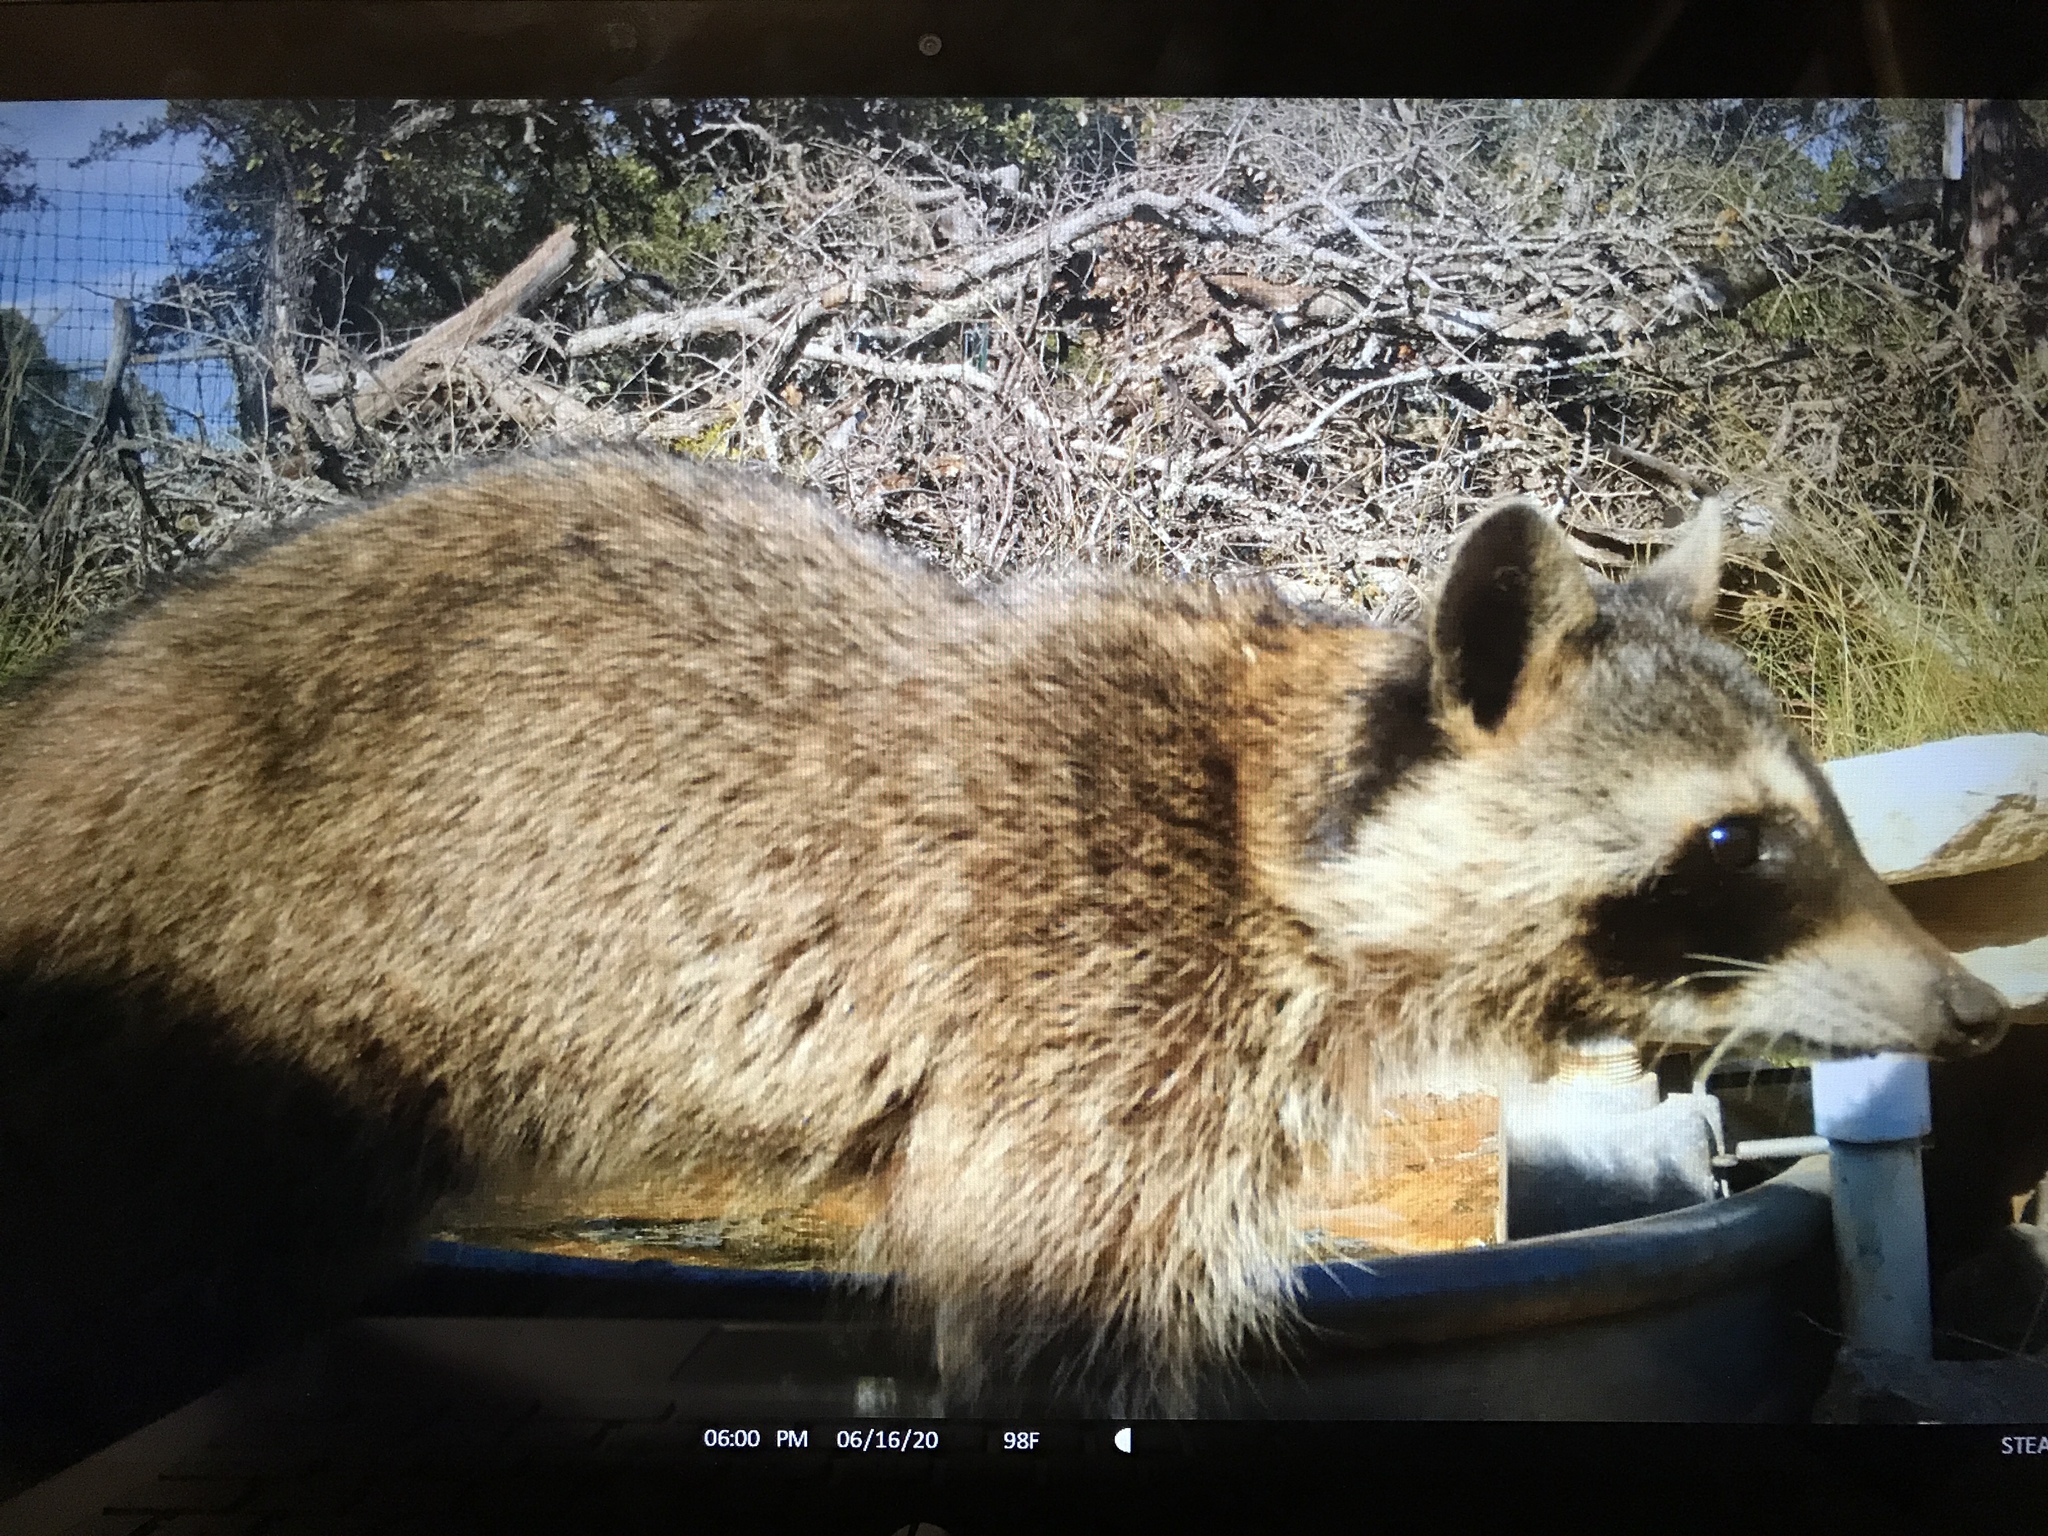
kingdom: Animalia
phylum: Chordata
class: Mammalia
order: Carnivora
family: Procyonidae
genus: Procyon
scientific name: Procyon lotor
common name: Raccoon
